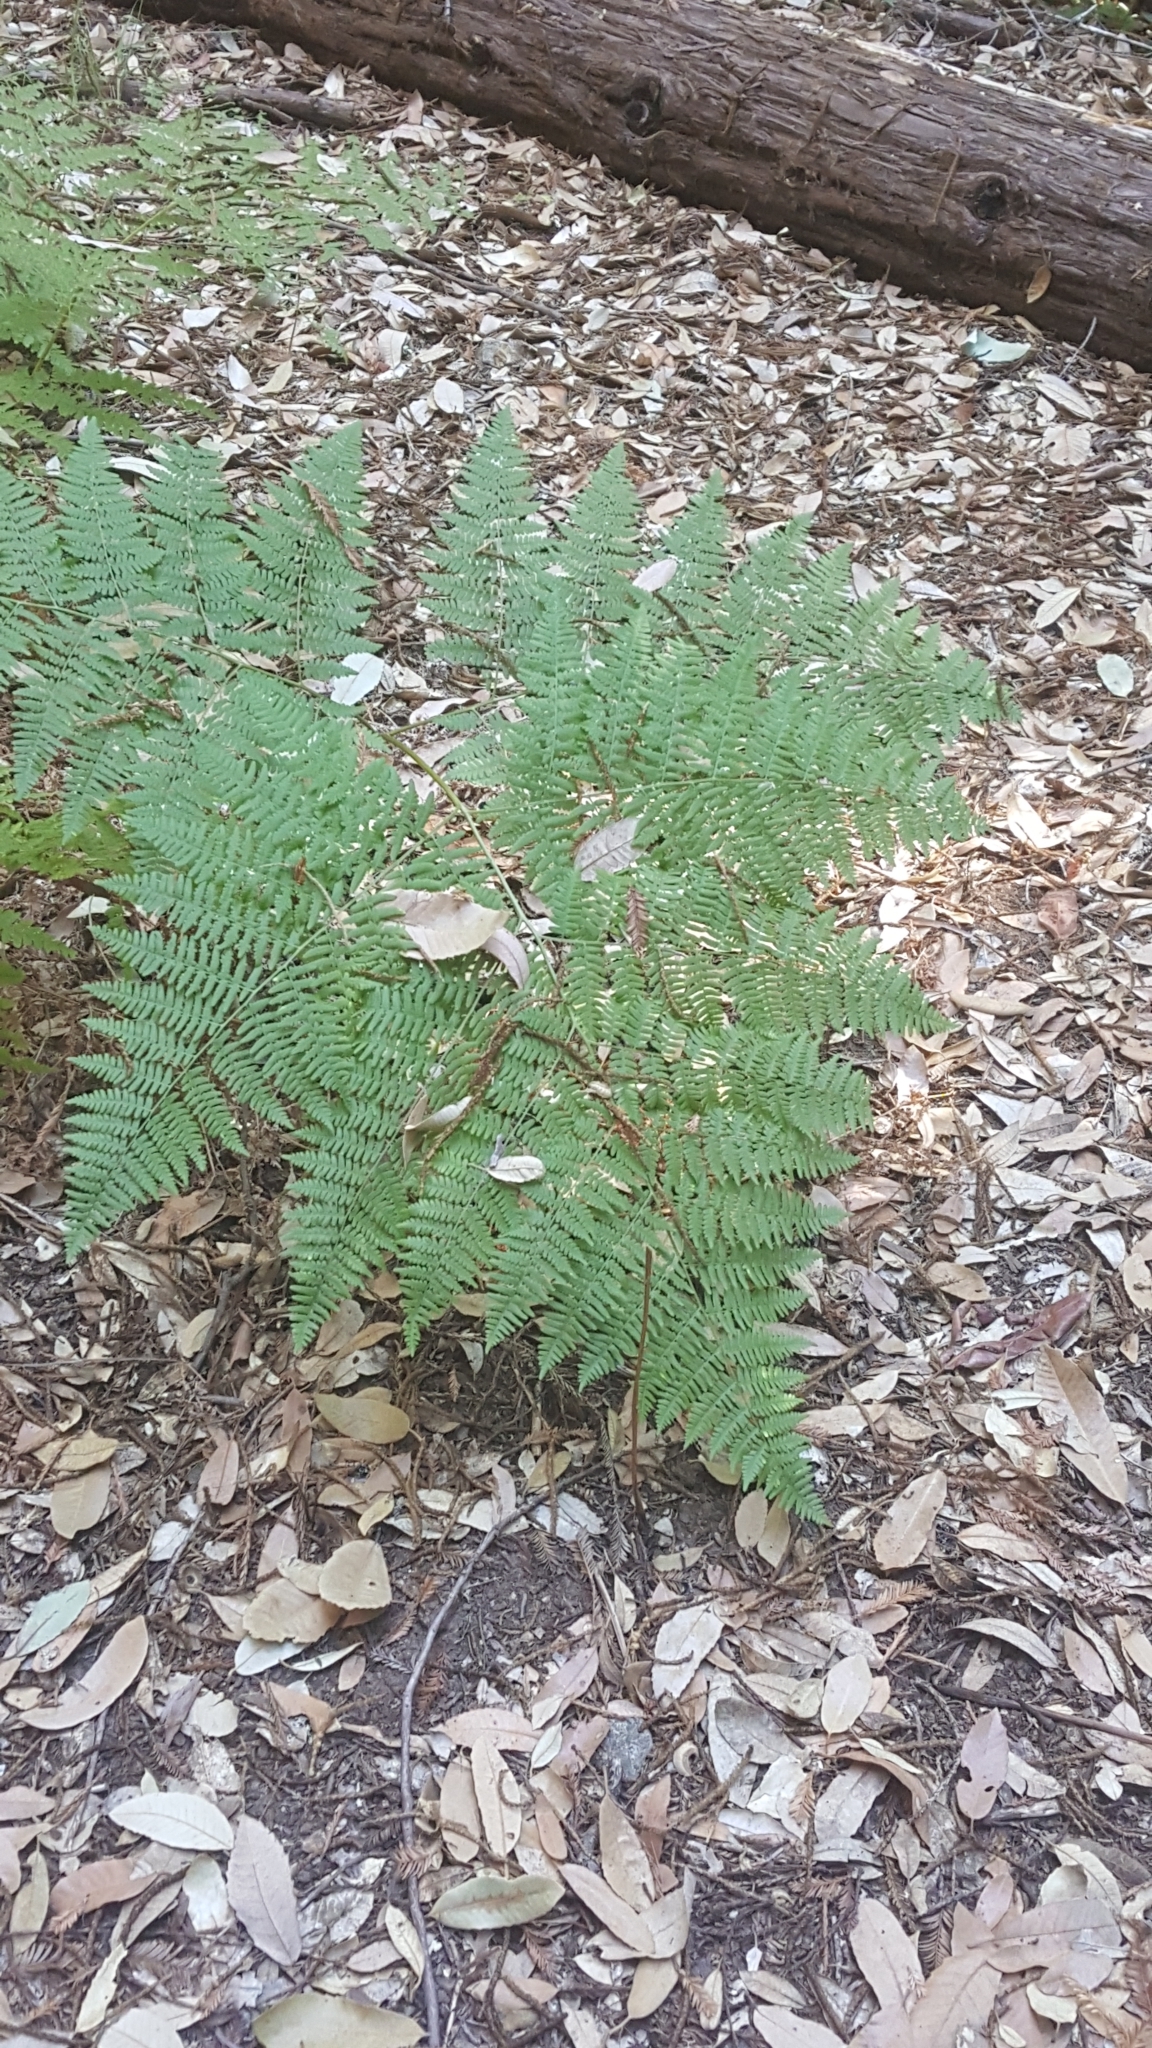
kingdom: Plantae
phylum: Tracheophyta
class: Polypodiopsida
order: Polypodiales
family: Dennstaedtiaceae
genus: Pteridium
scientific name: Pteridium aquilinum
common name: Bracken
